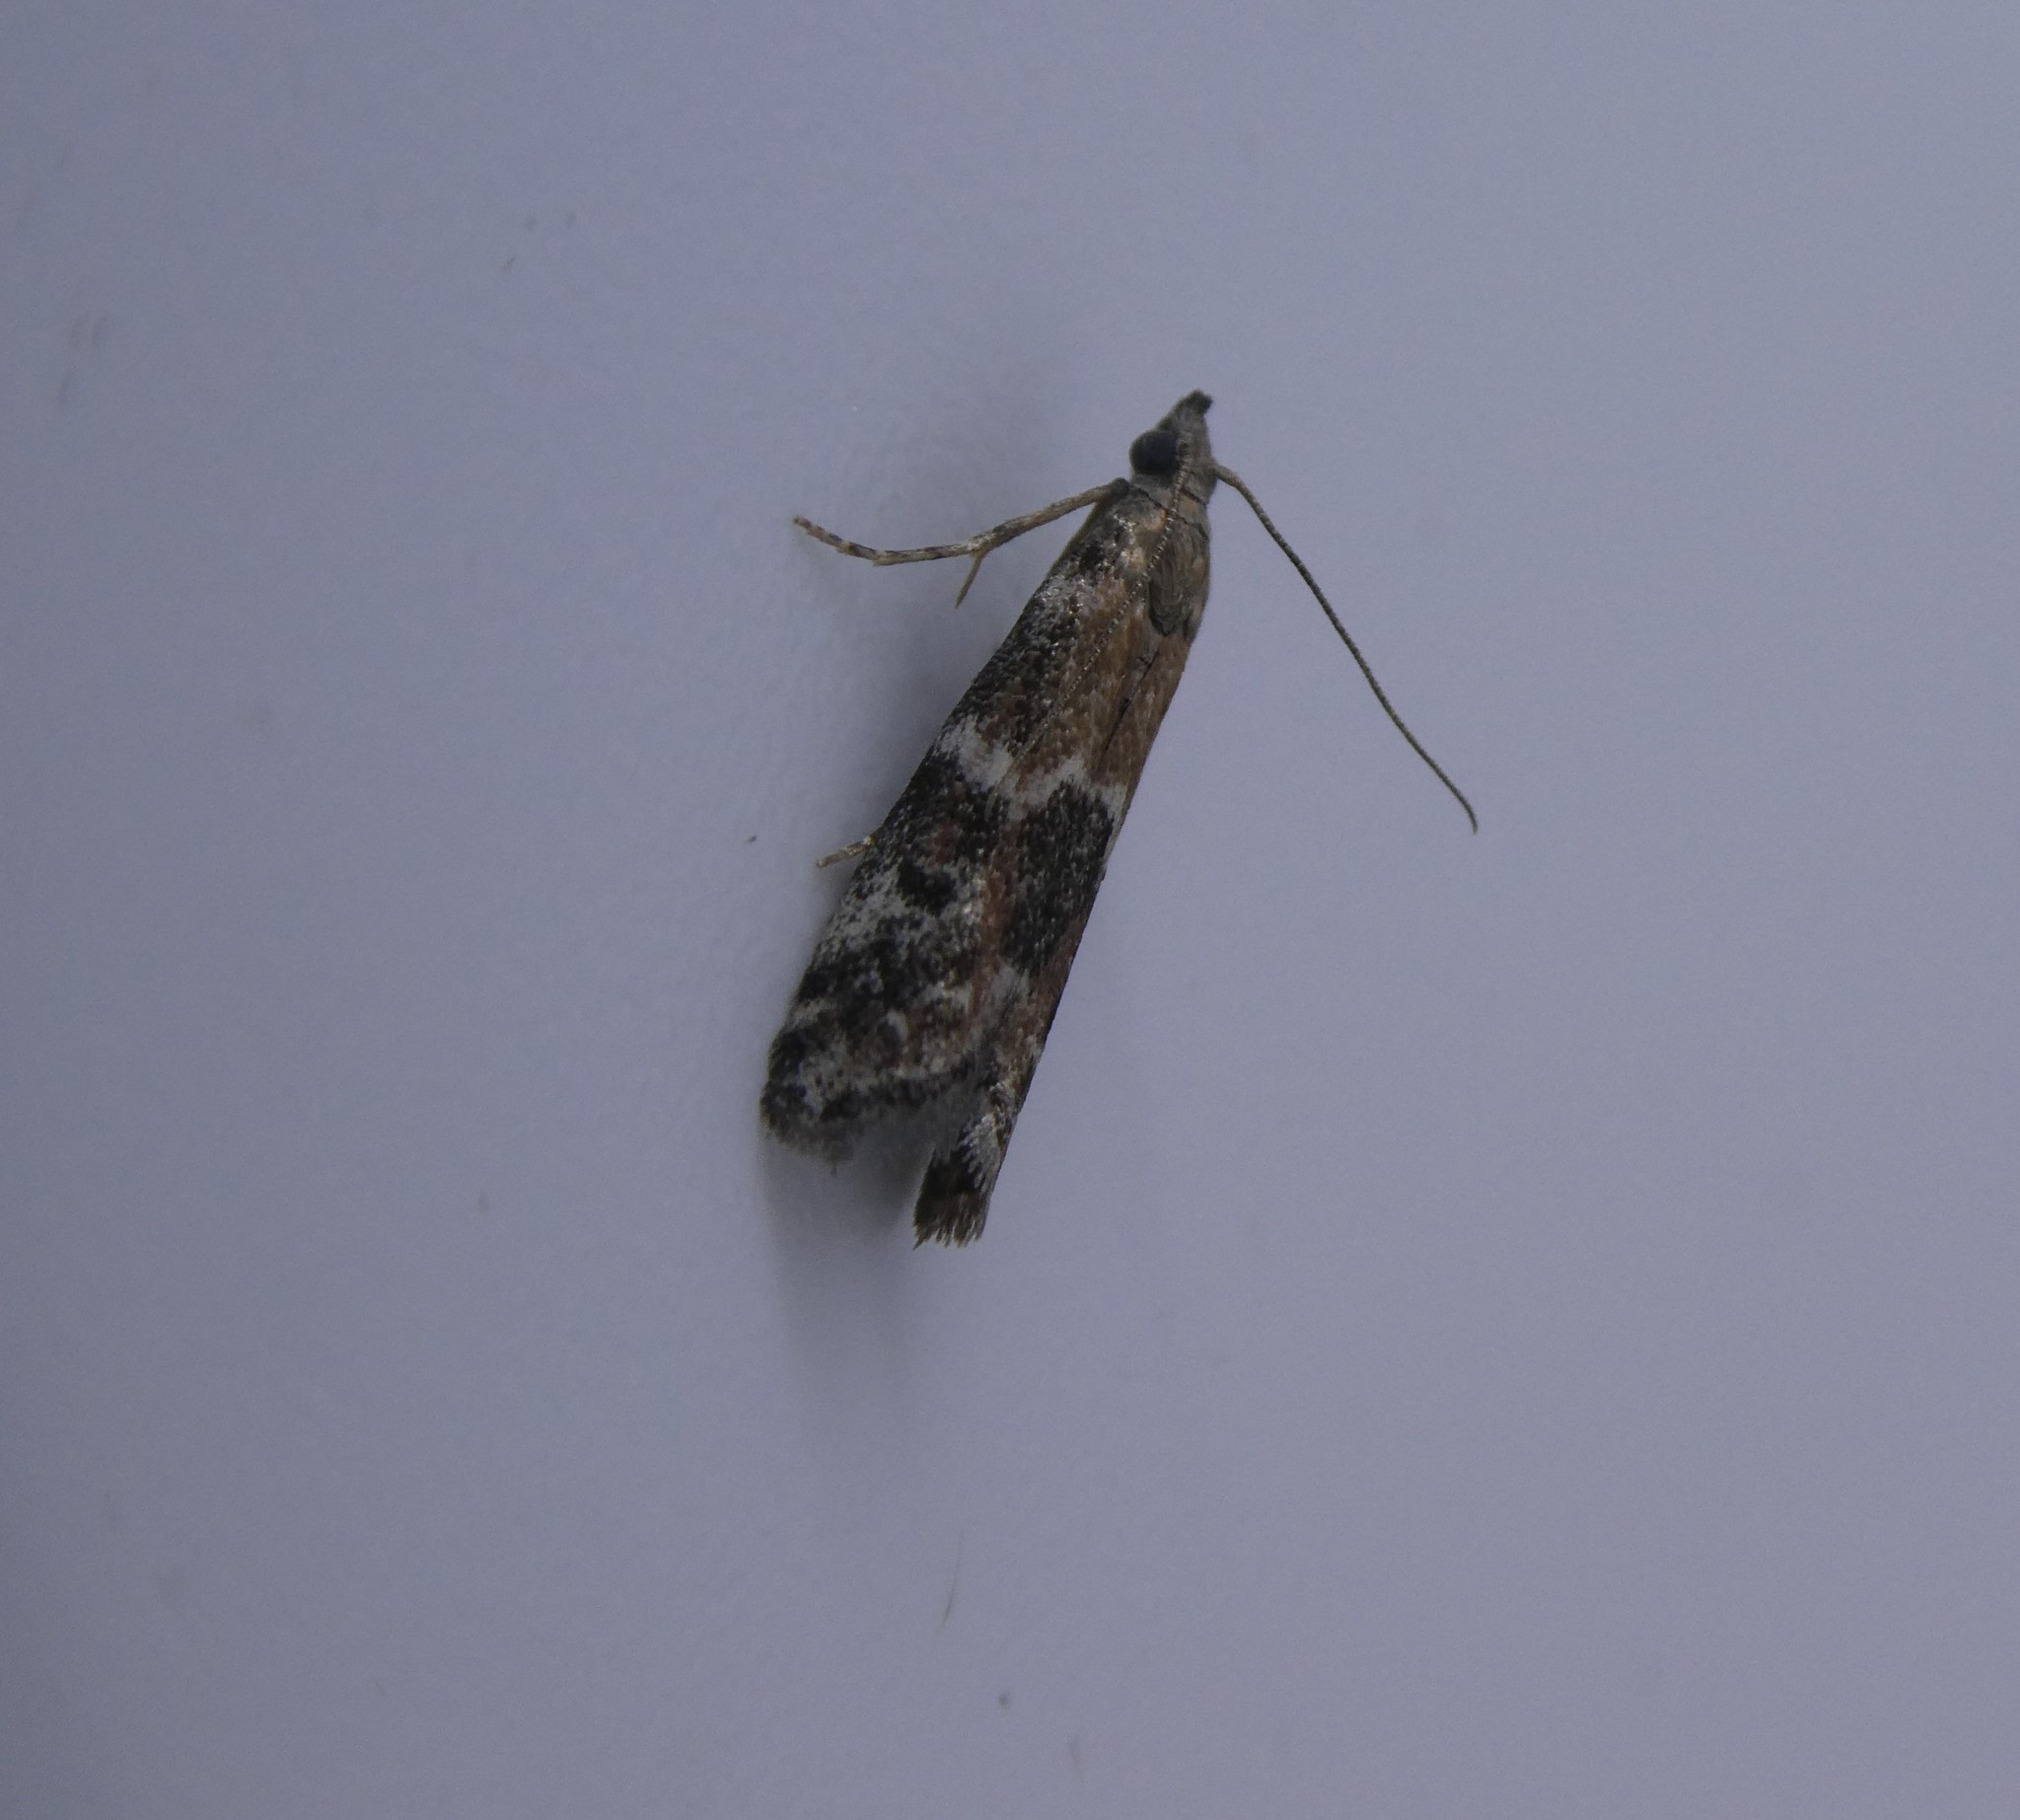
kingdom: Animalia
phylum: Arthropoda
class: Insecta
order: Lepidoptera
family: Pyralidae
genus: Vitula
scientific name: Vitula broweri
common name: Brower's vitula moth
